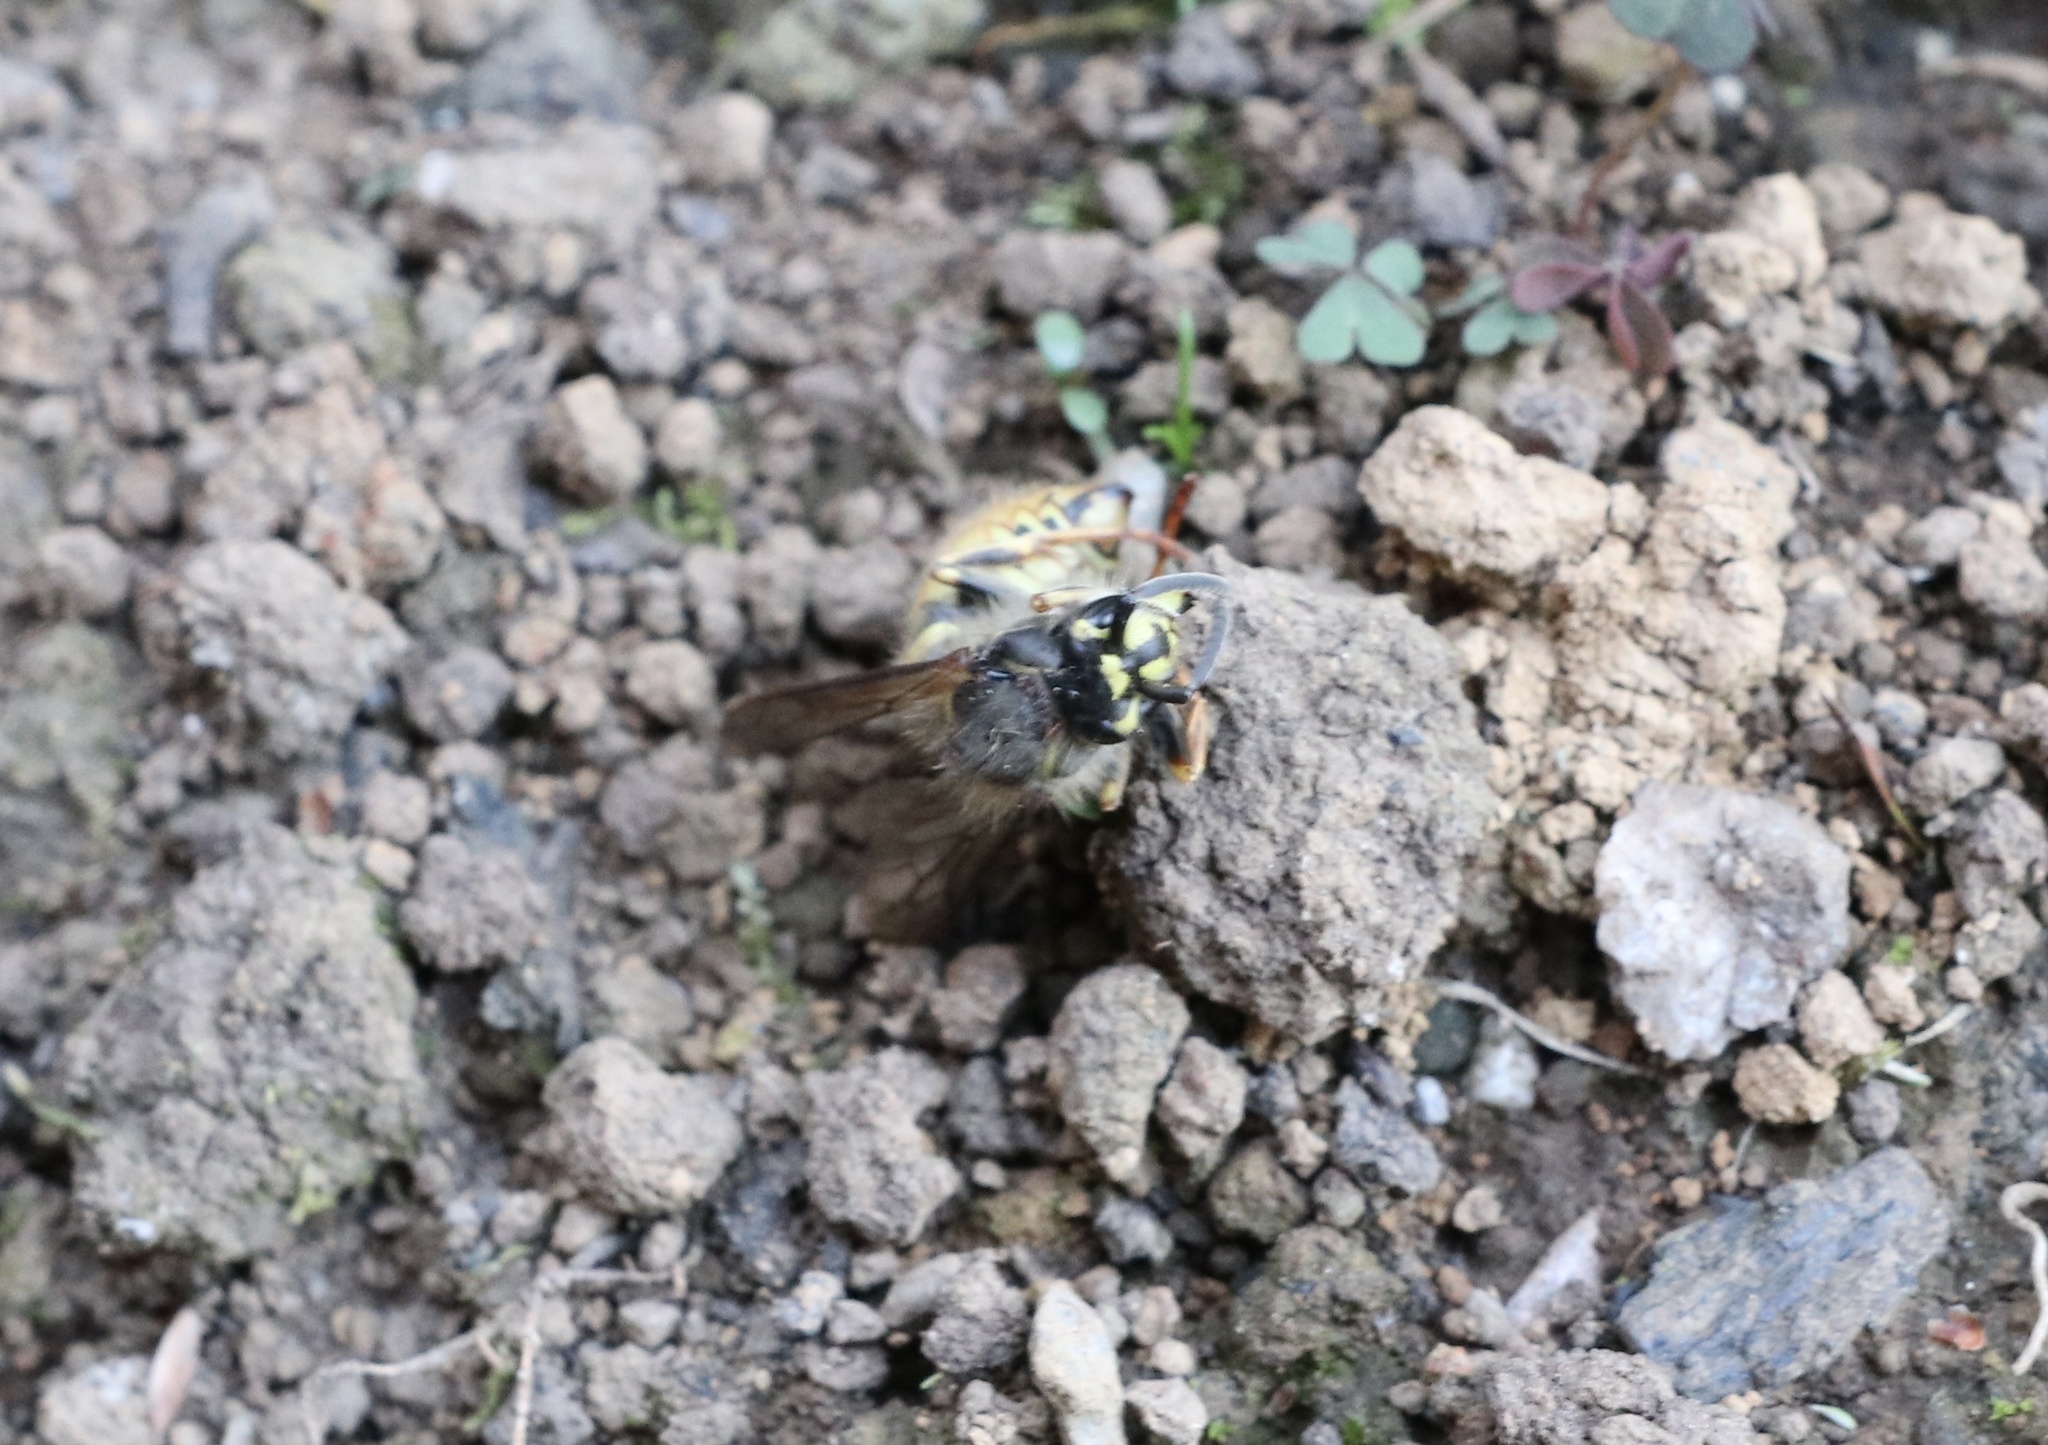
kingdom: Animalia
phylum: Arthropoda
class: Insecta
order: Hymenoptera
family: Vespidae
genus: Vespula
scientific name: Vespula vulgaris
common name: Common wasp
